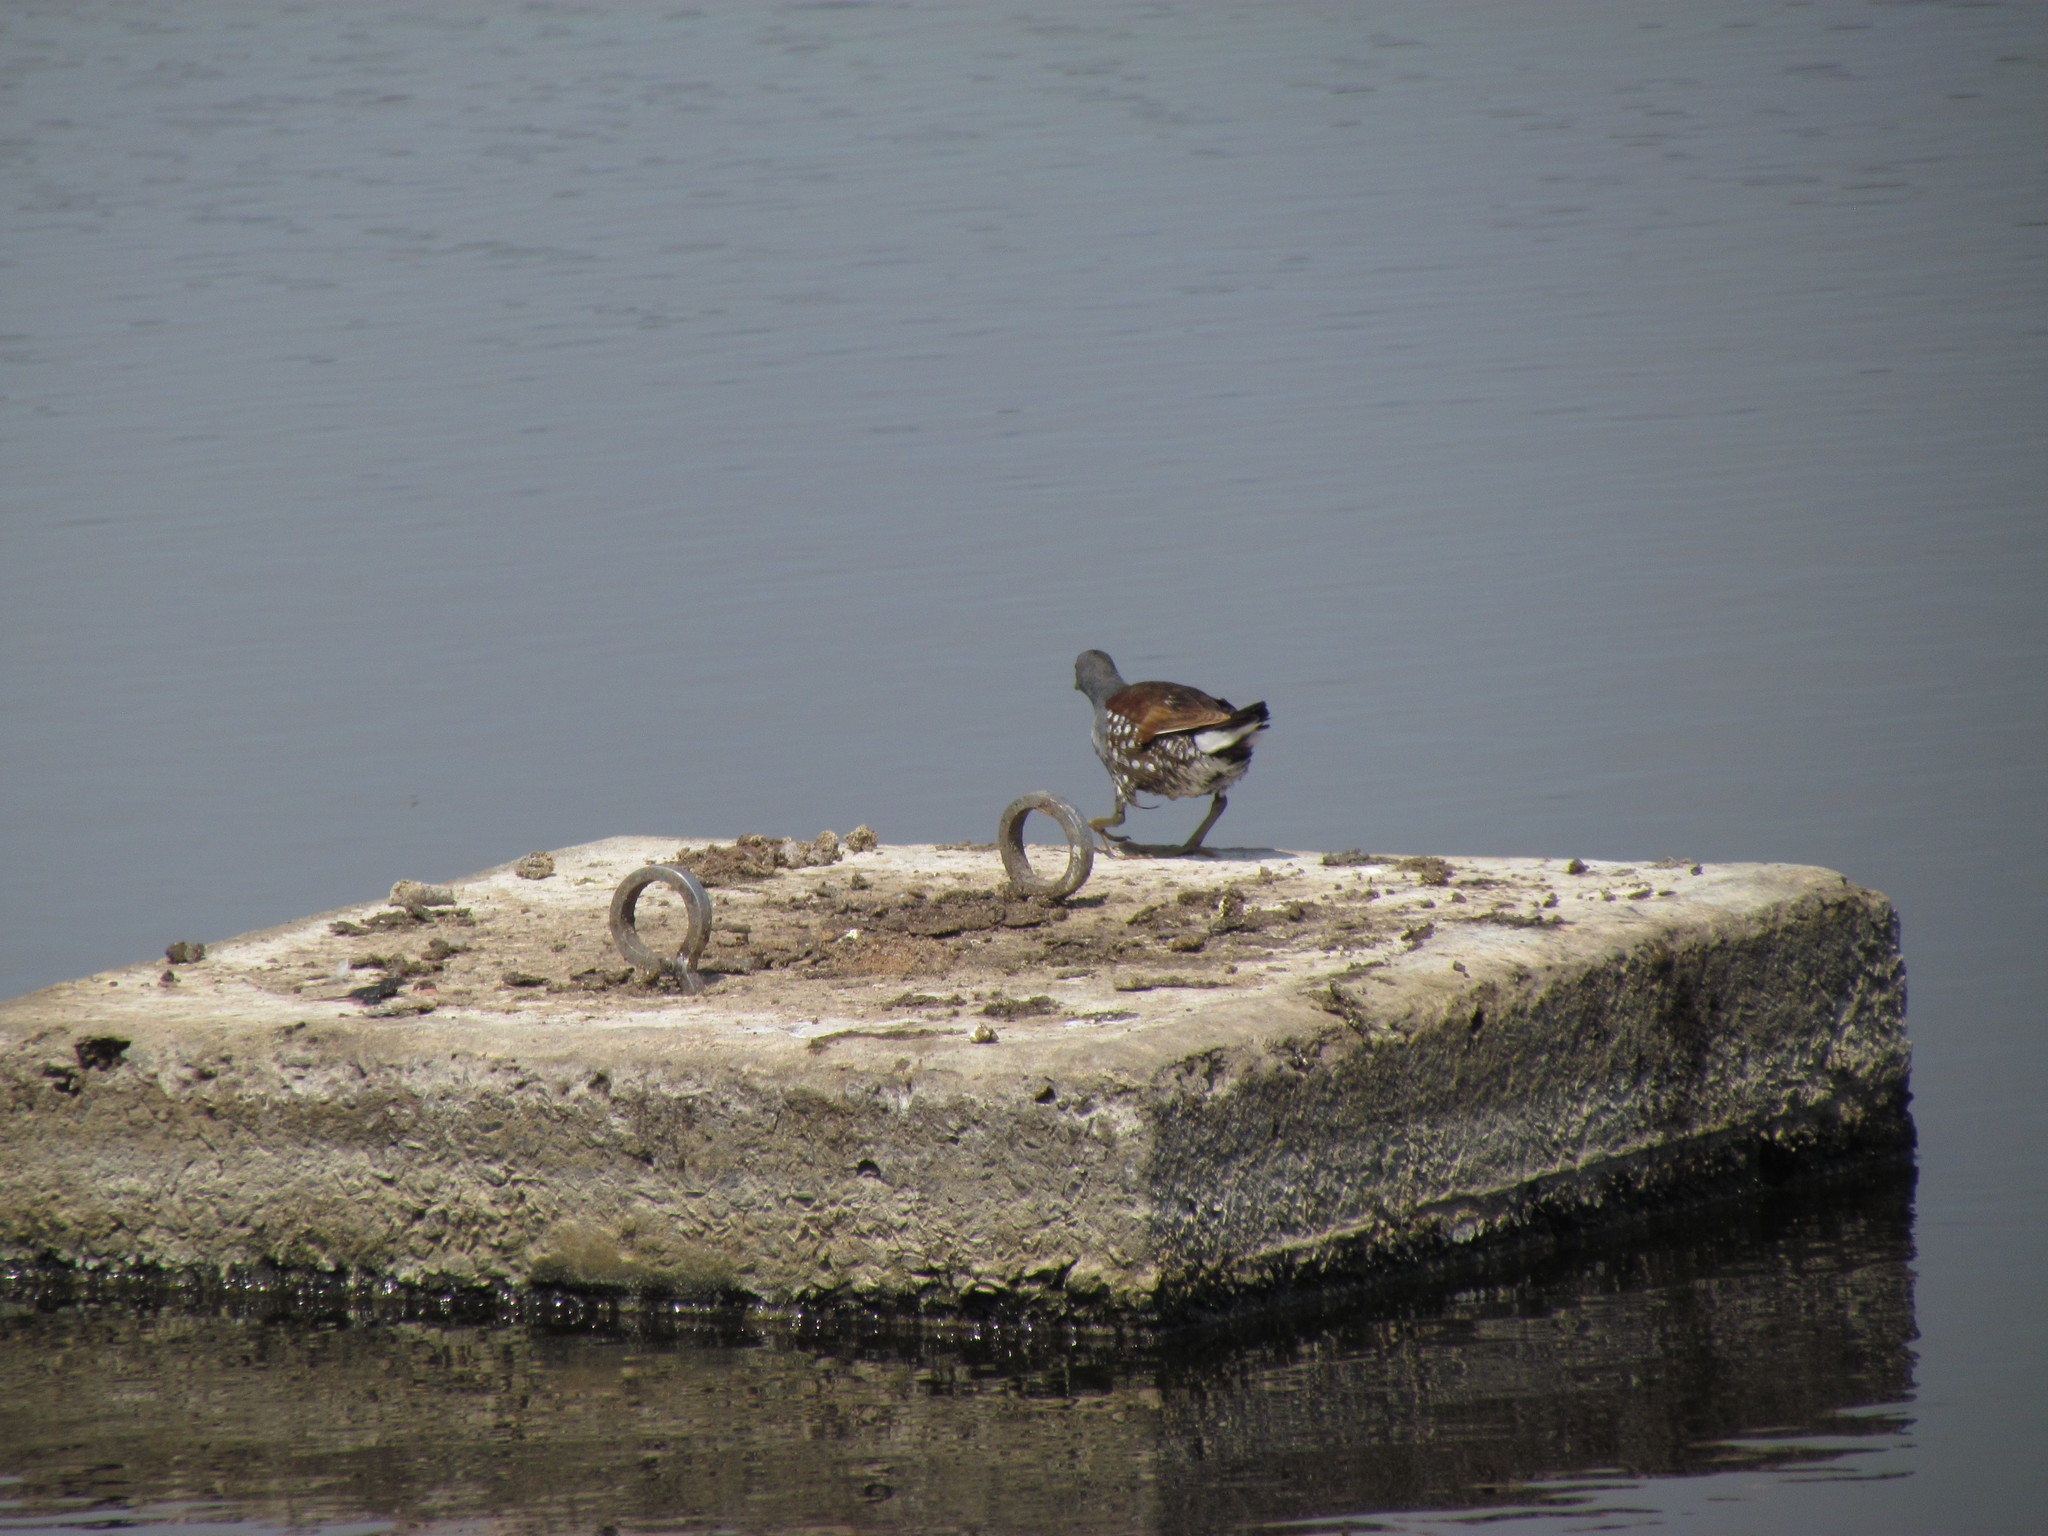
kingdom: Animalia
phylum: Chordata
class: Aves
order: Gruiformes
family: Rallidae
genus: Gallinula
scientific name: Gallinula melanops
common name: Spot-flanked gallinule
